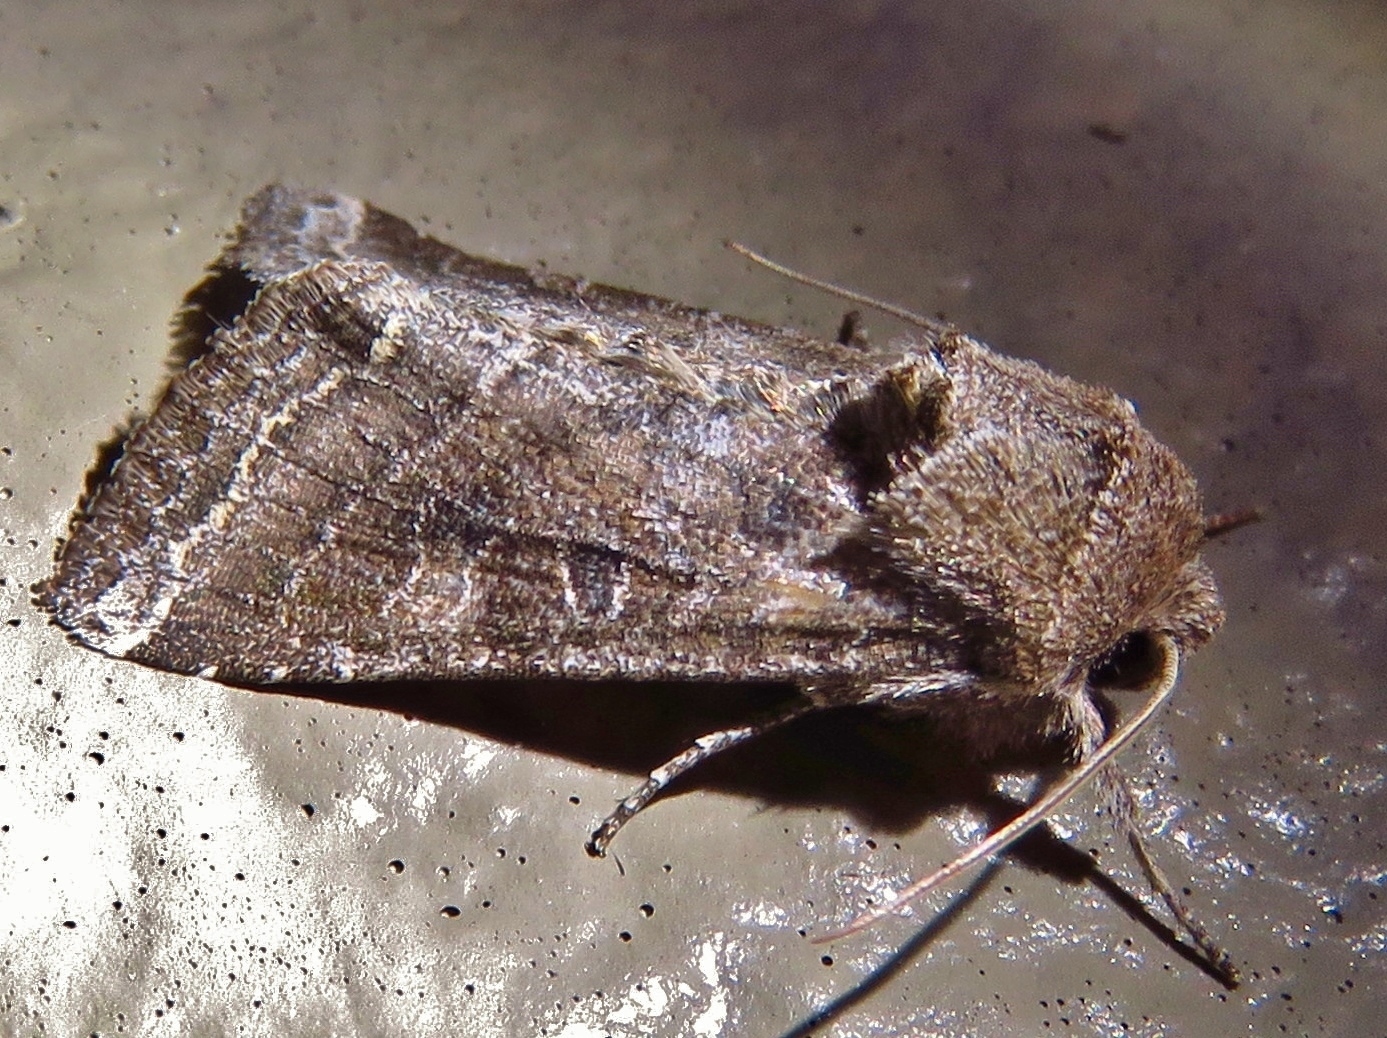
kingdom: Animalia
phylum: Arthropoda
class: Insecta
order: Lepidoptera
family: Noctuidae
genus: Lacinipolia
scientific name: Lacinipolia erecta
